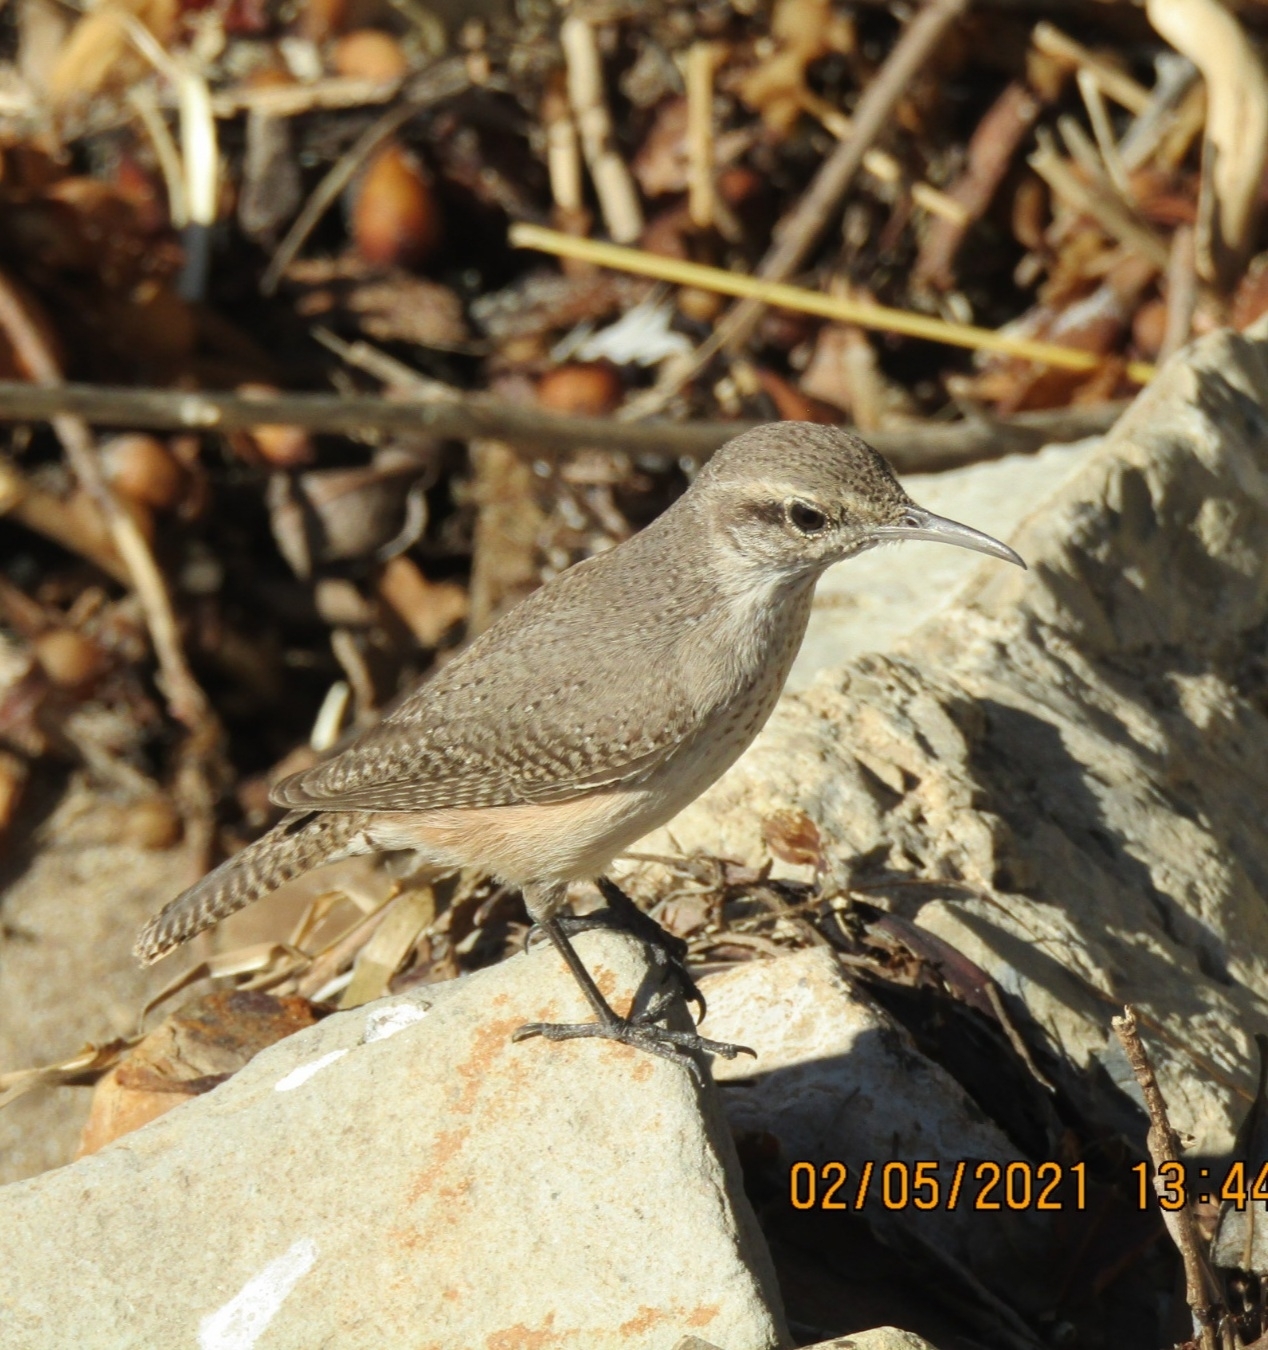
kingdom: Animalia
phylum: Chordata
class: Aves
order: Passeriformes
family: Troglodytidae
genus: Salpinctes
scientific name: Salpinctes obsoletus
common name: Rock wren
